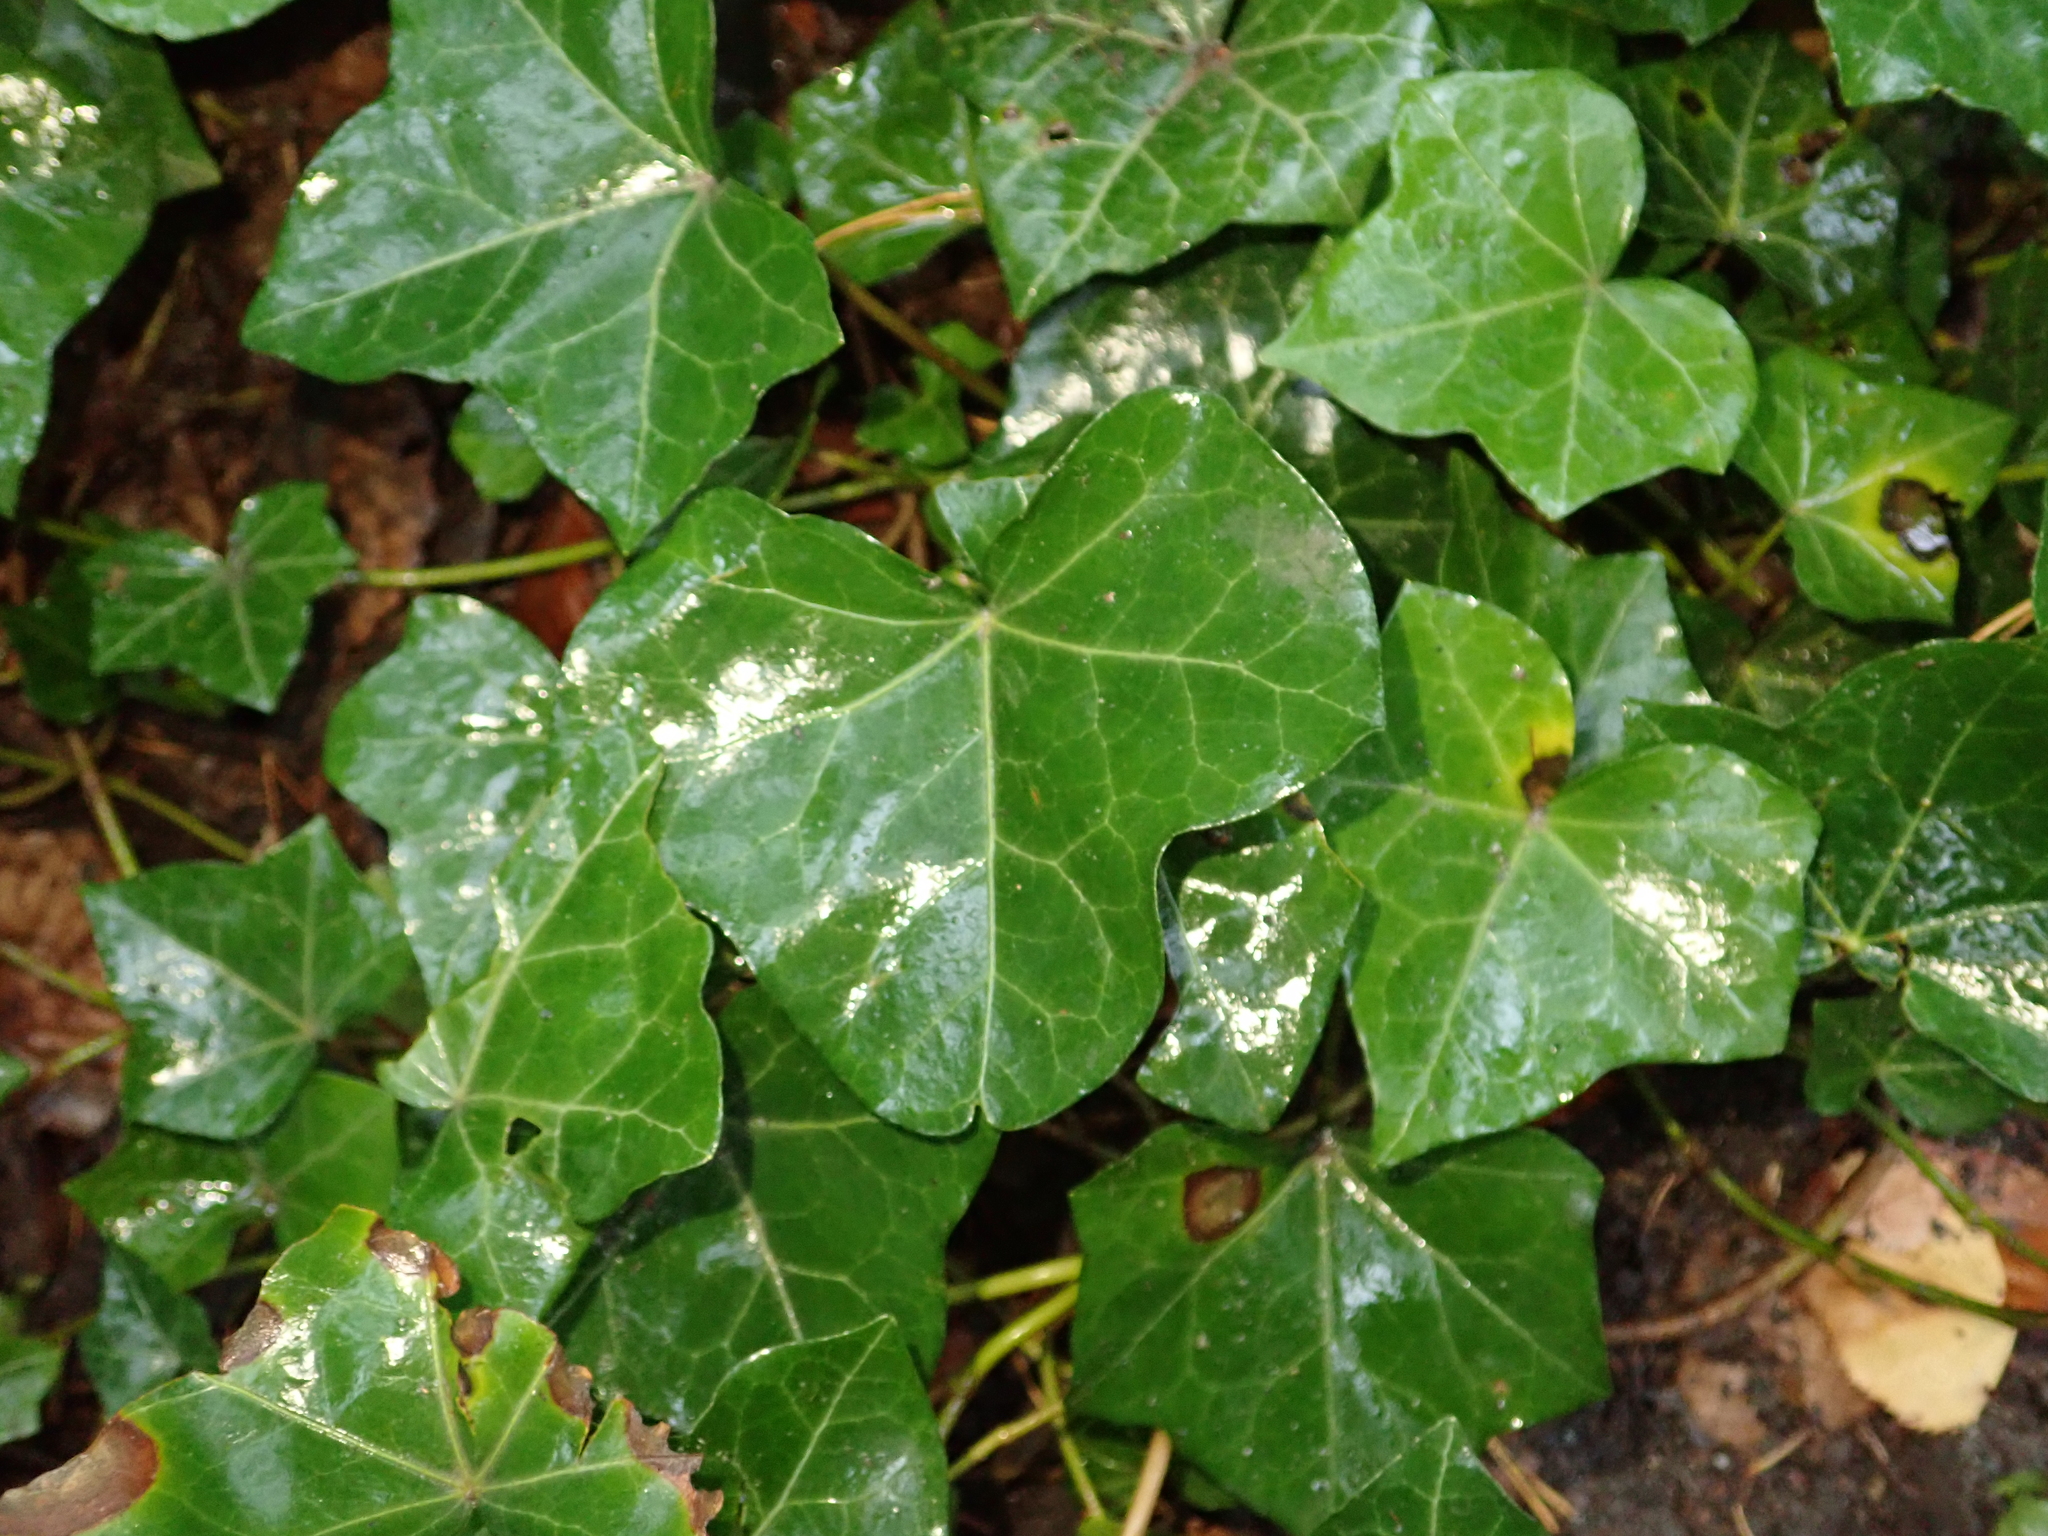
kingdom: Plantae
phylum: Tracheophyta
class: Magnoliopsida
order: Apiales
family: Araliaceae
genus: Hedera
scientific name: Hedera helix
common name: Ivy
